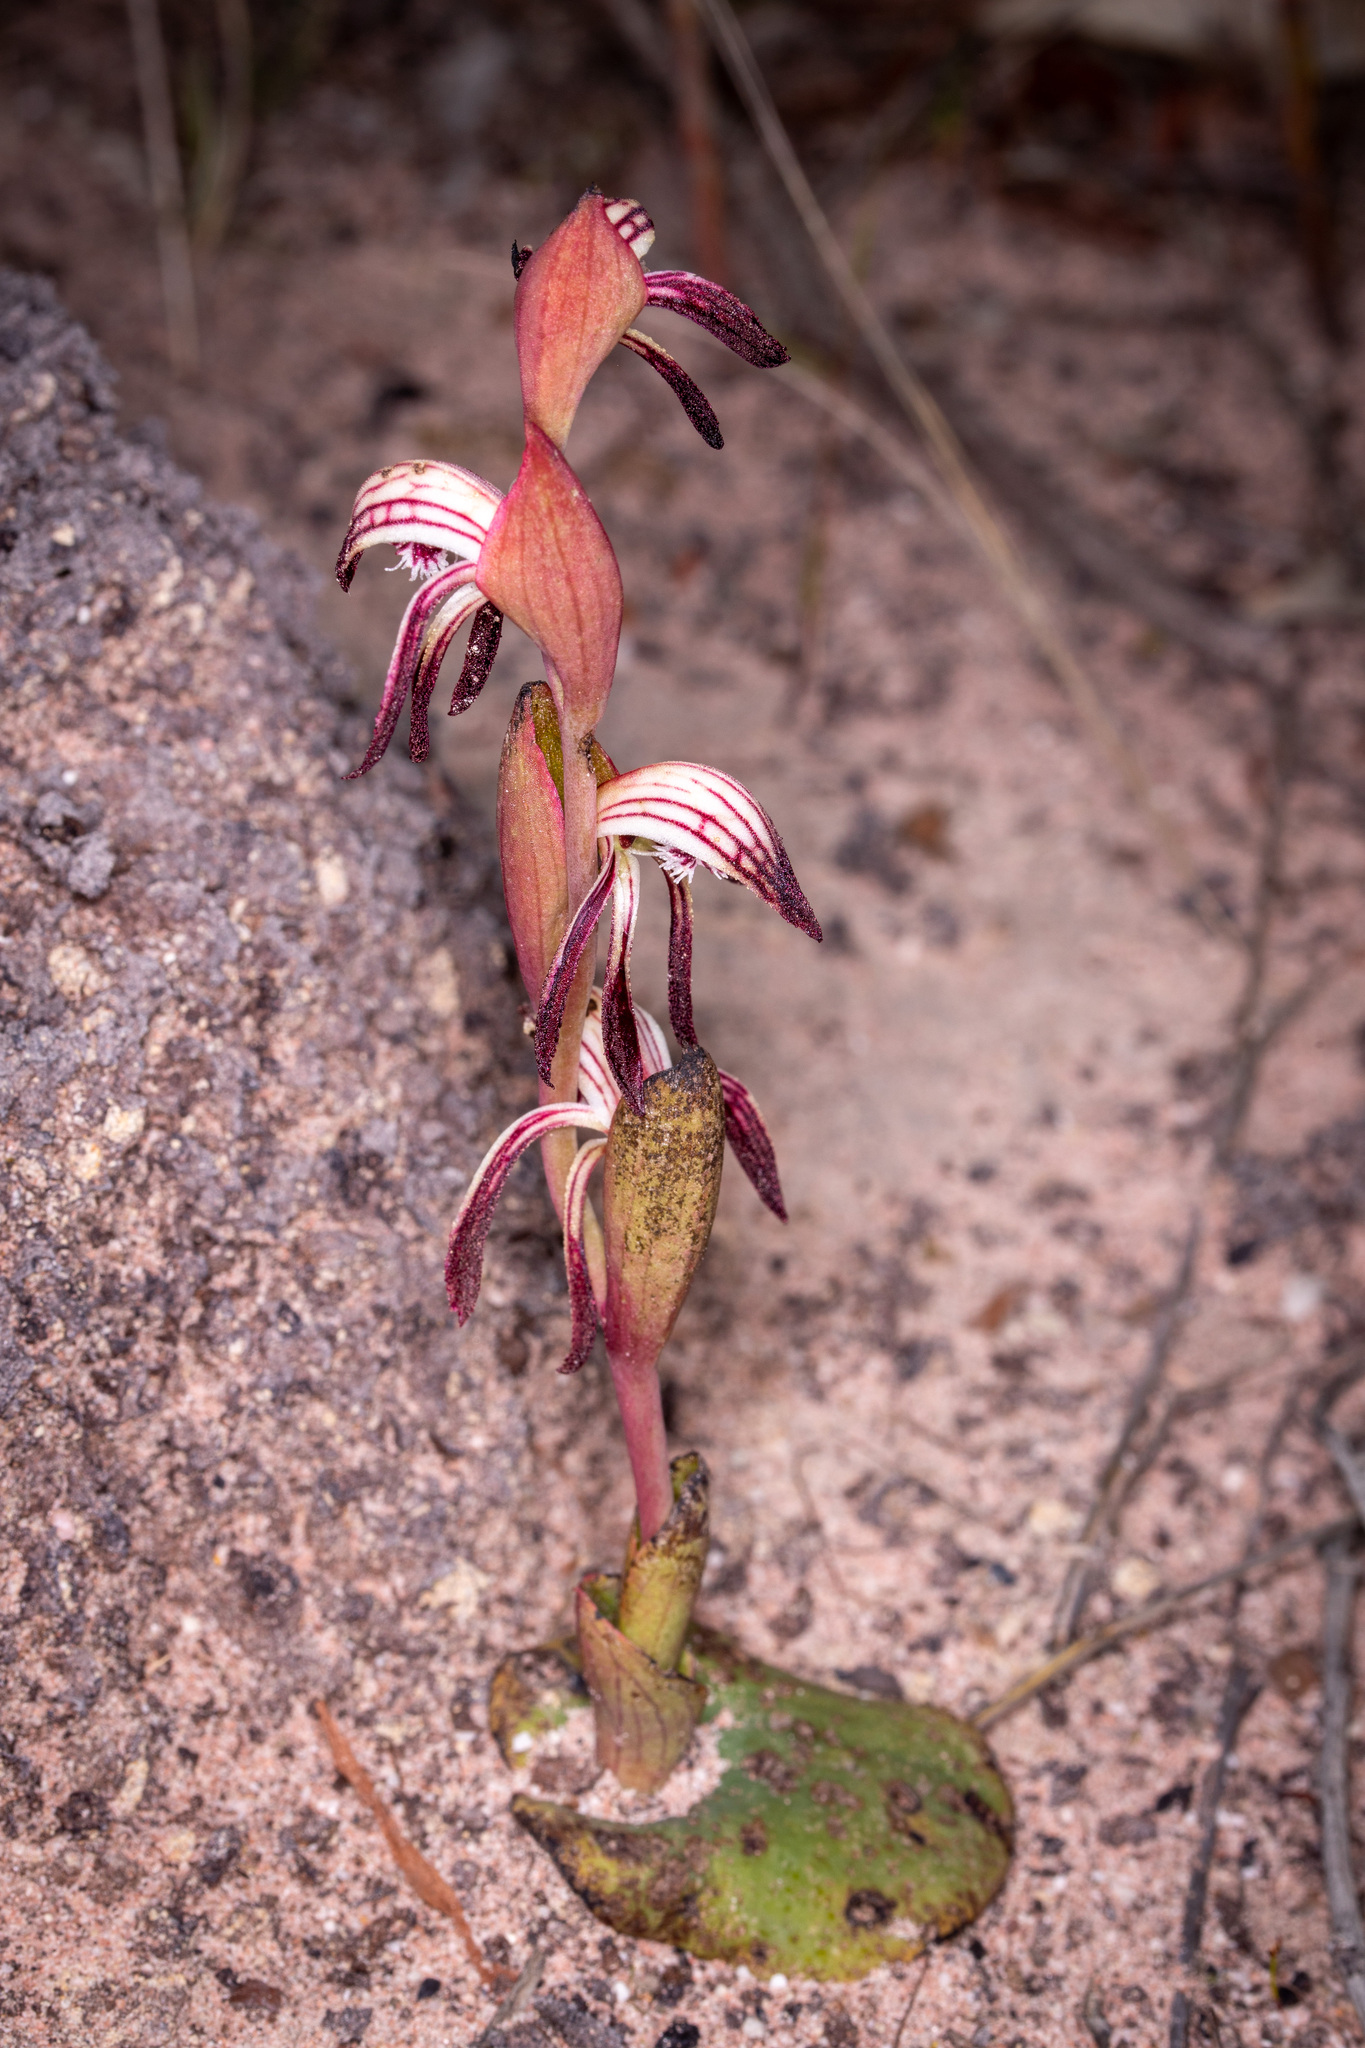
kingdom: Plantae
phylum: Tracheophyta
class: Liliopsida
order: Asparagales
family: Orchidaceae
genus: Pyrorchis
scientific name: Pyrorchis nigricans
